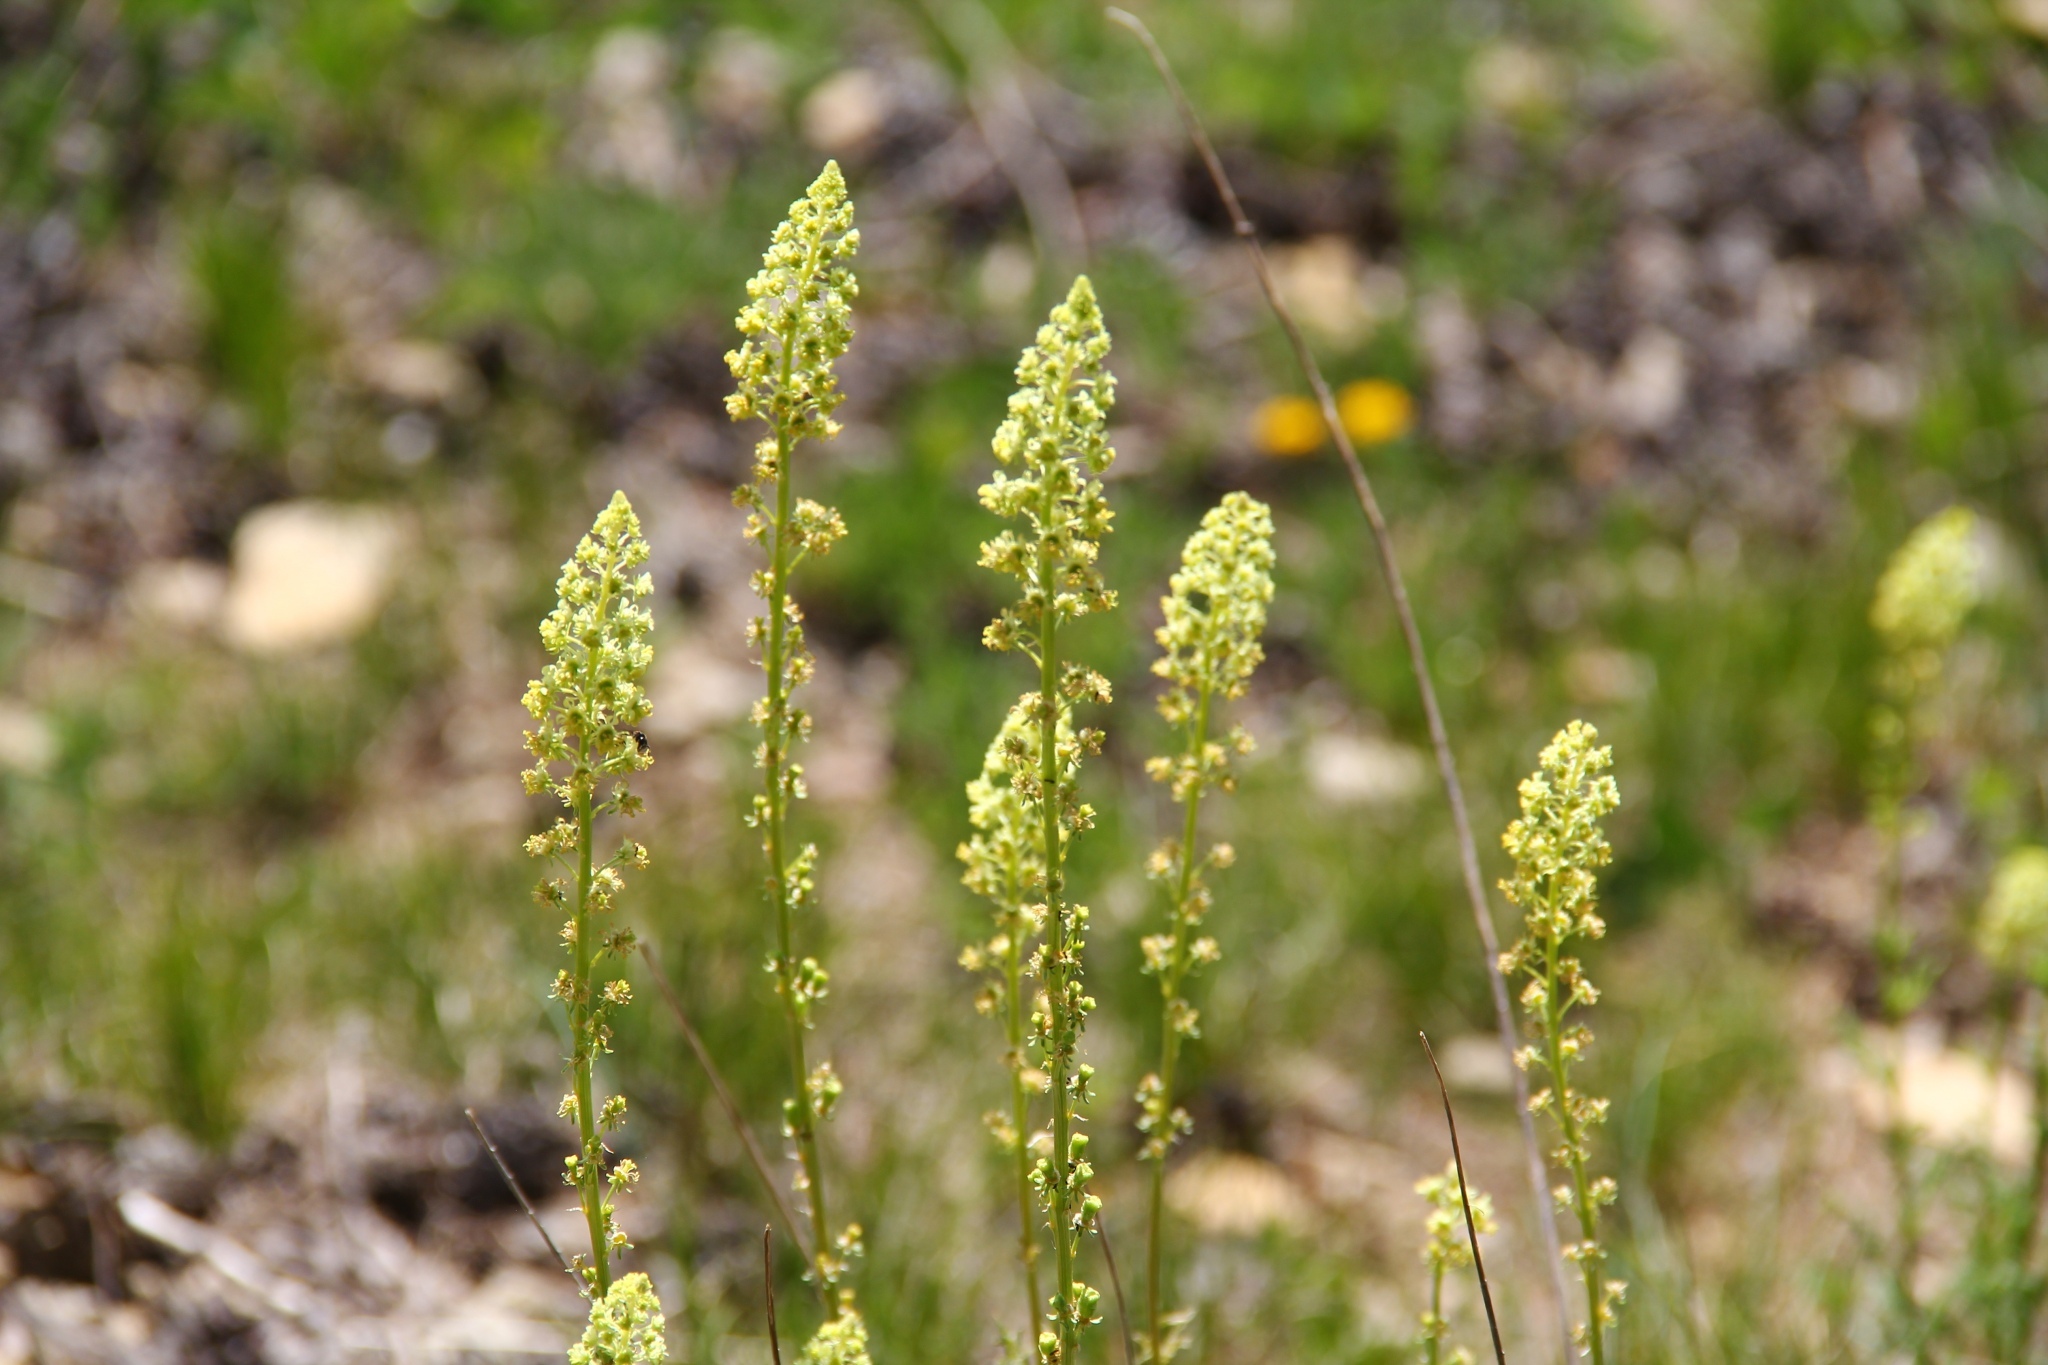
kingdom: Plantae
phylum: Tracheophyta
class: Magnoliopsida
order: Brassicales
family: Resedaceae
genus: Reseda
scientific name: Reseda lutea
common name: Wild mignonette
